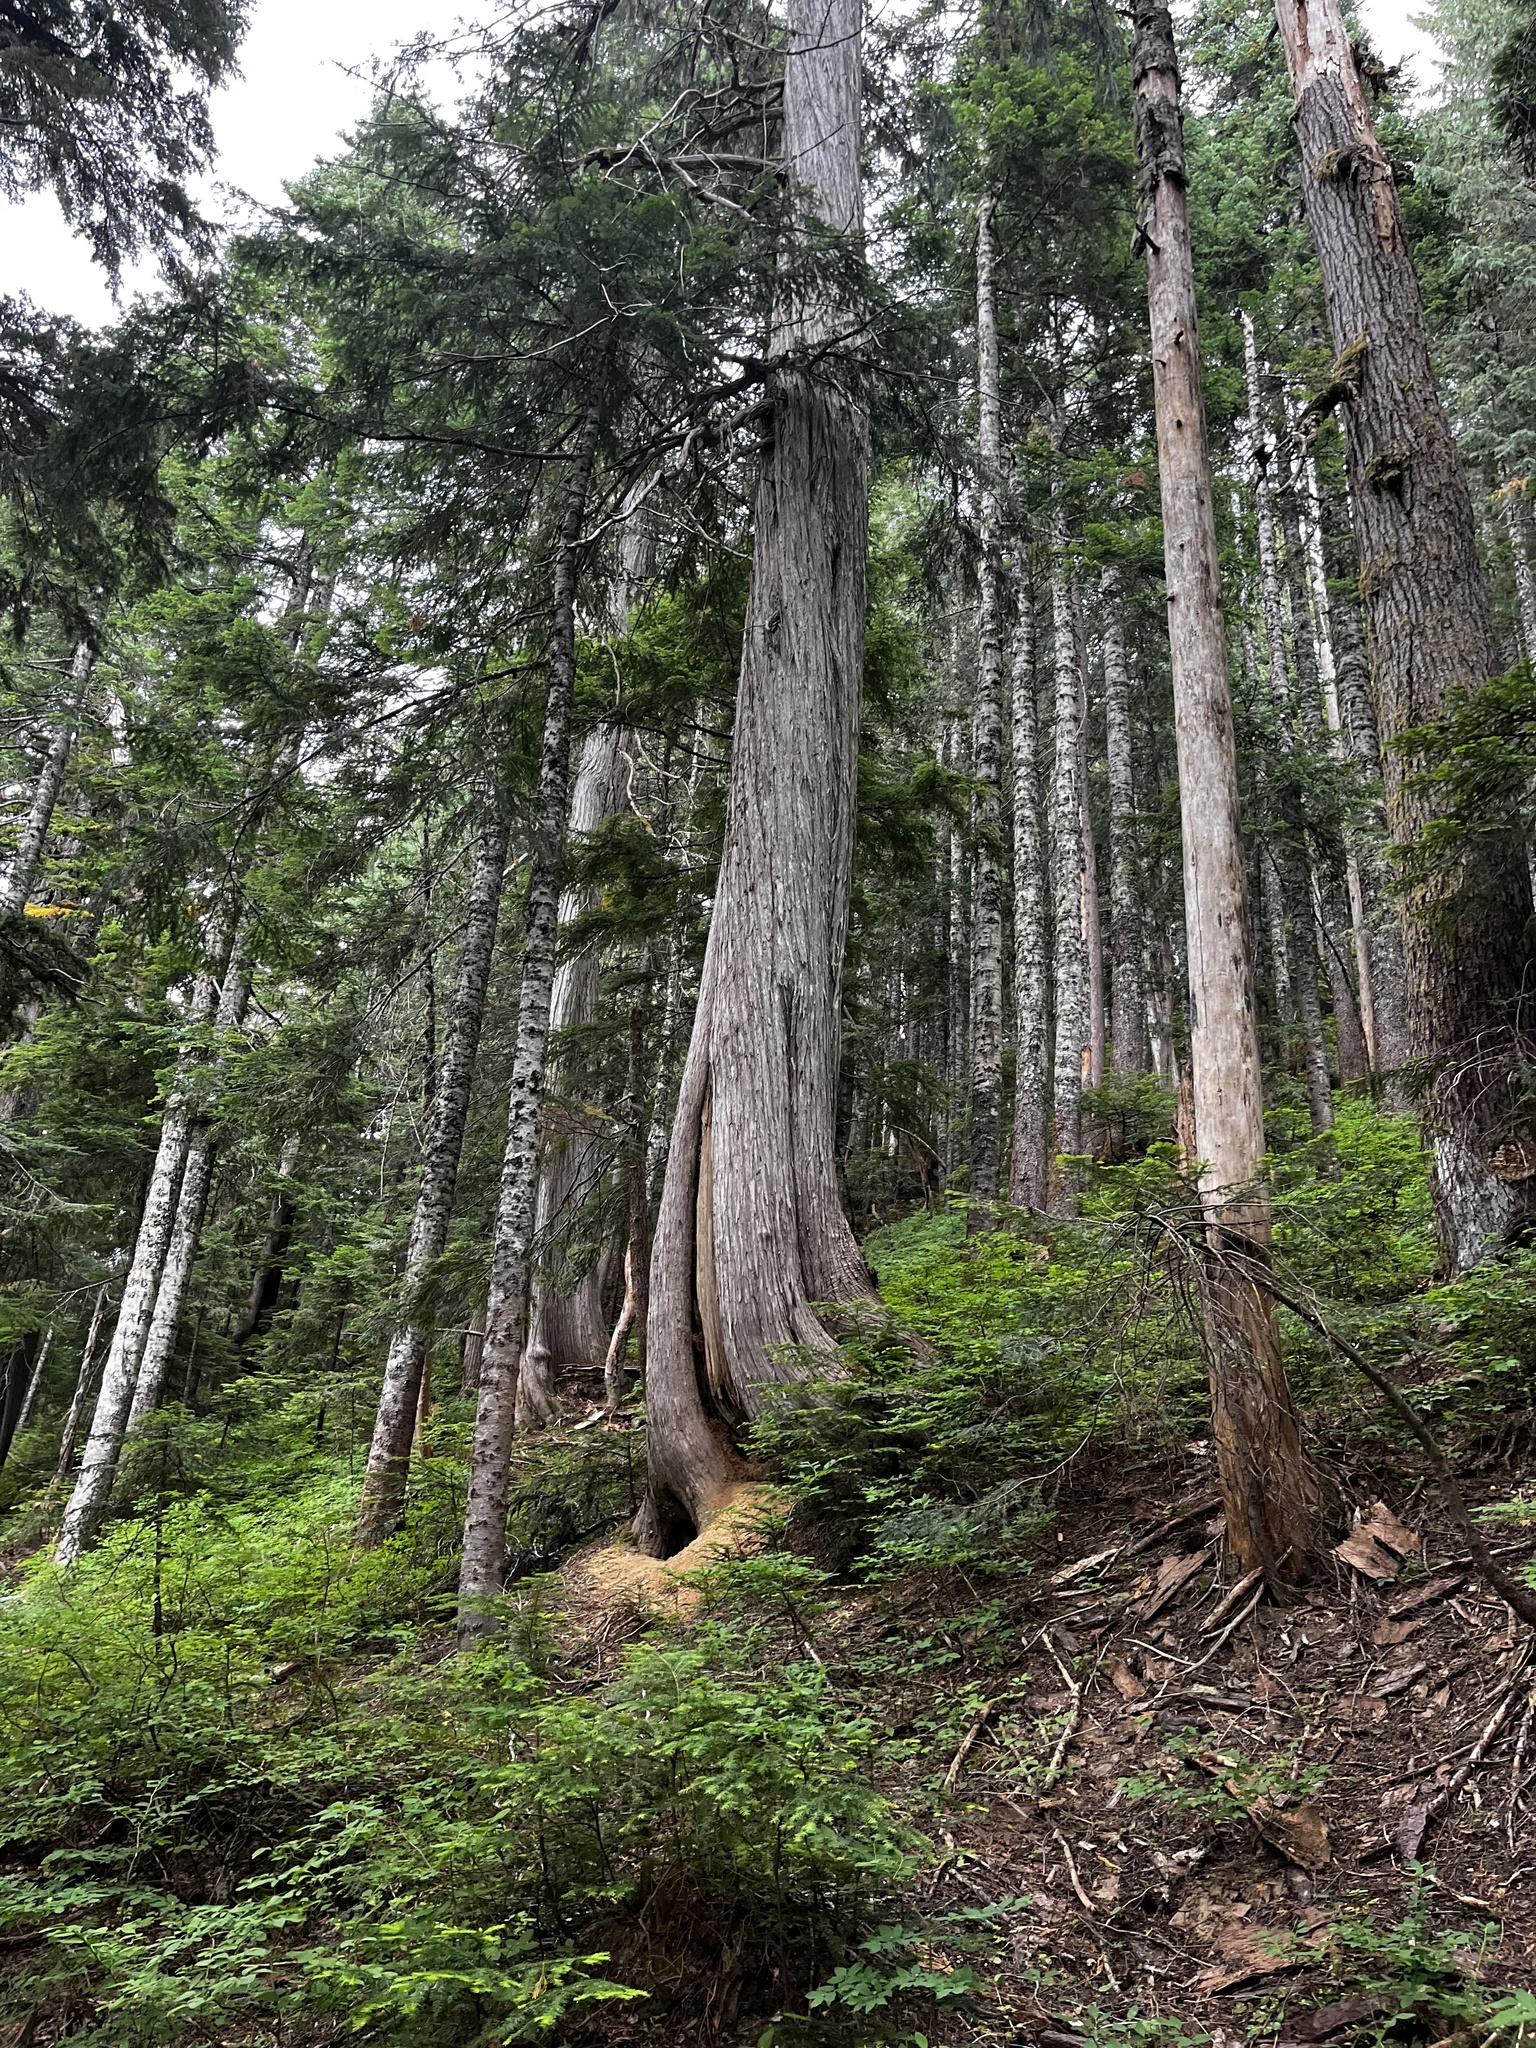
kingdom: Plantae
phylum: Tracheophyta
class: Pinopsida
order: Pinales
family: Cupressaceae
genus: Xanthocyparis
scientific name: Xanthocyparis nootkatensis
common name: Nootka cypress
